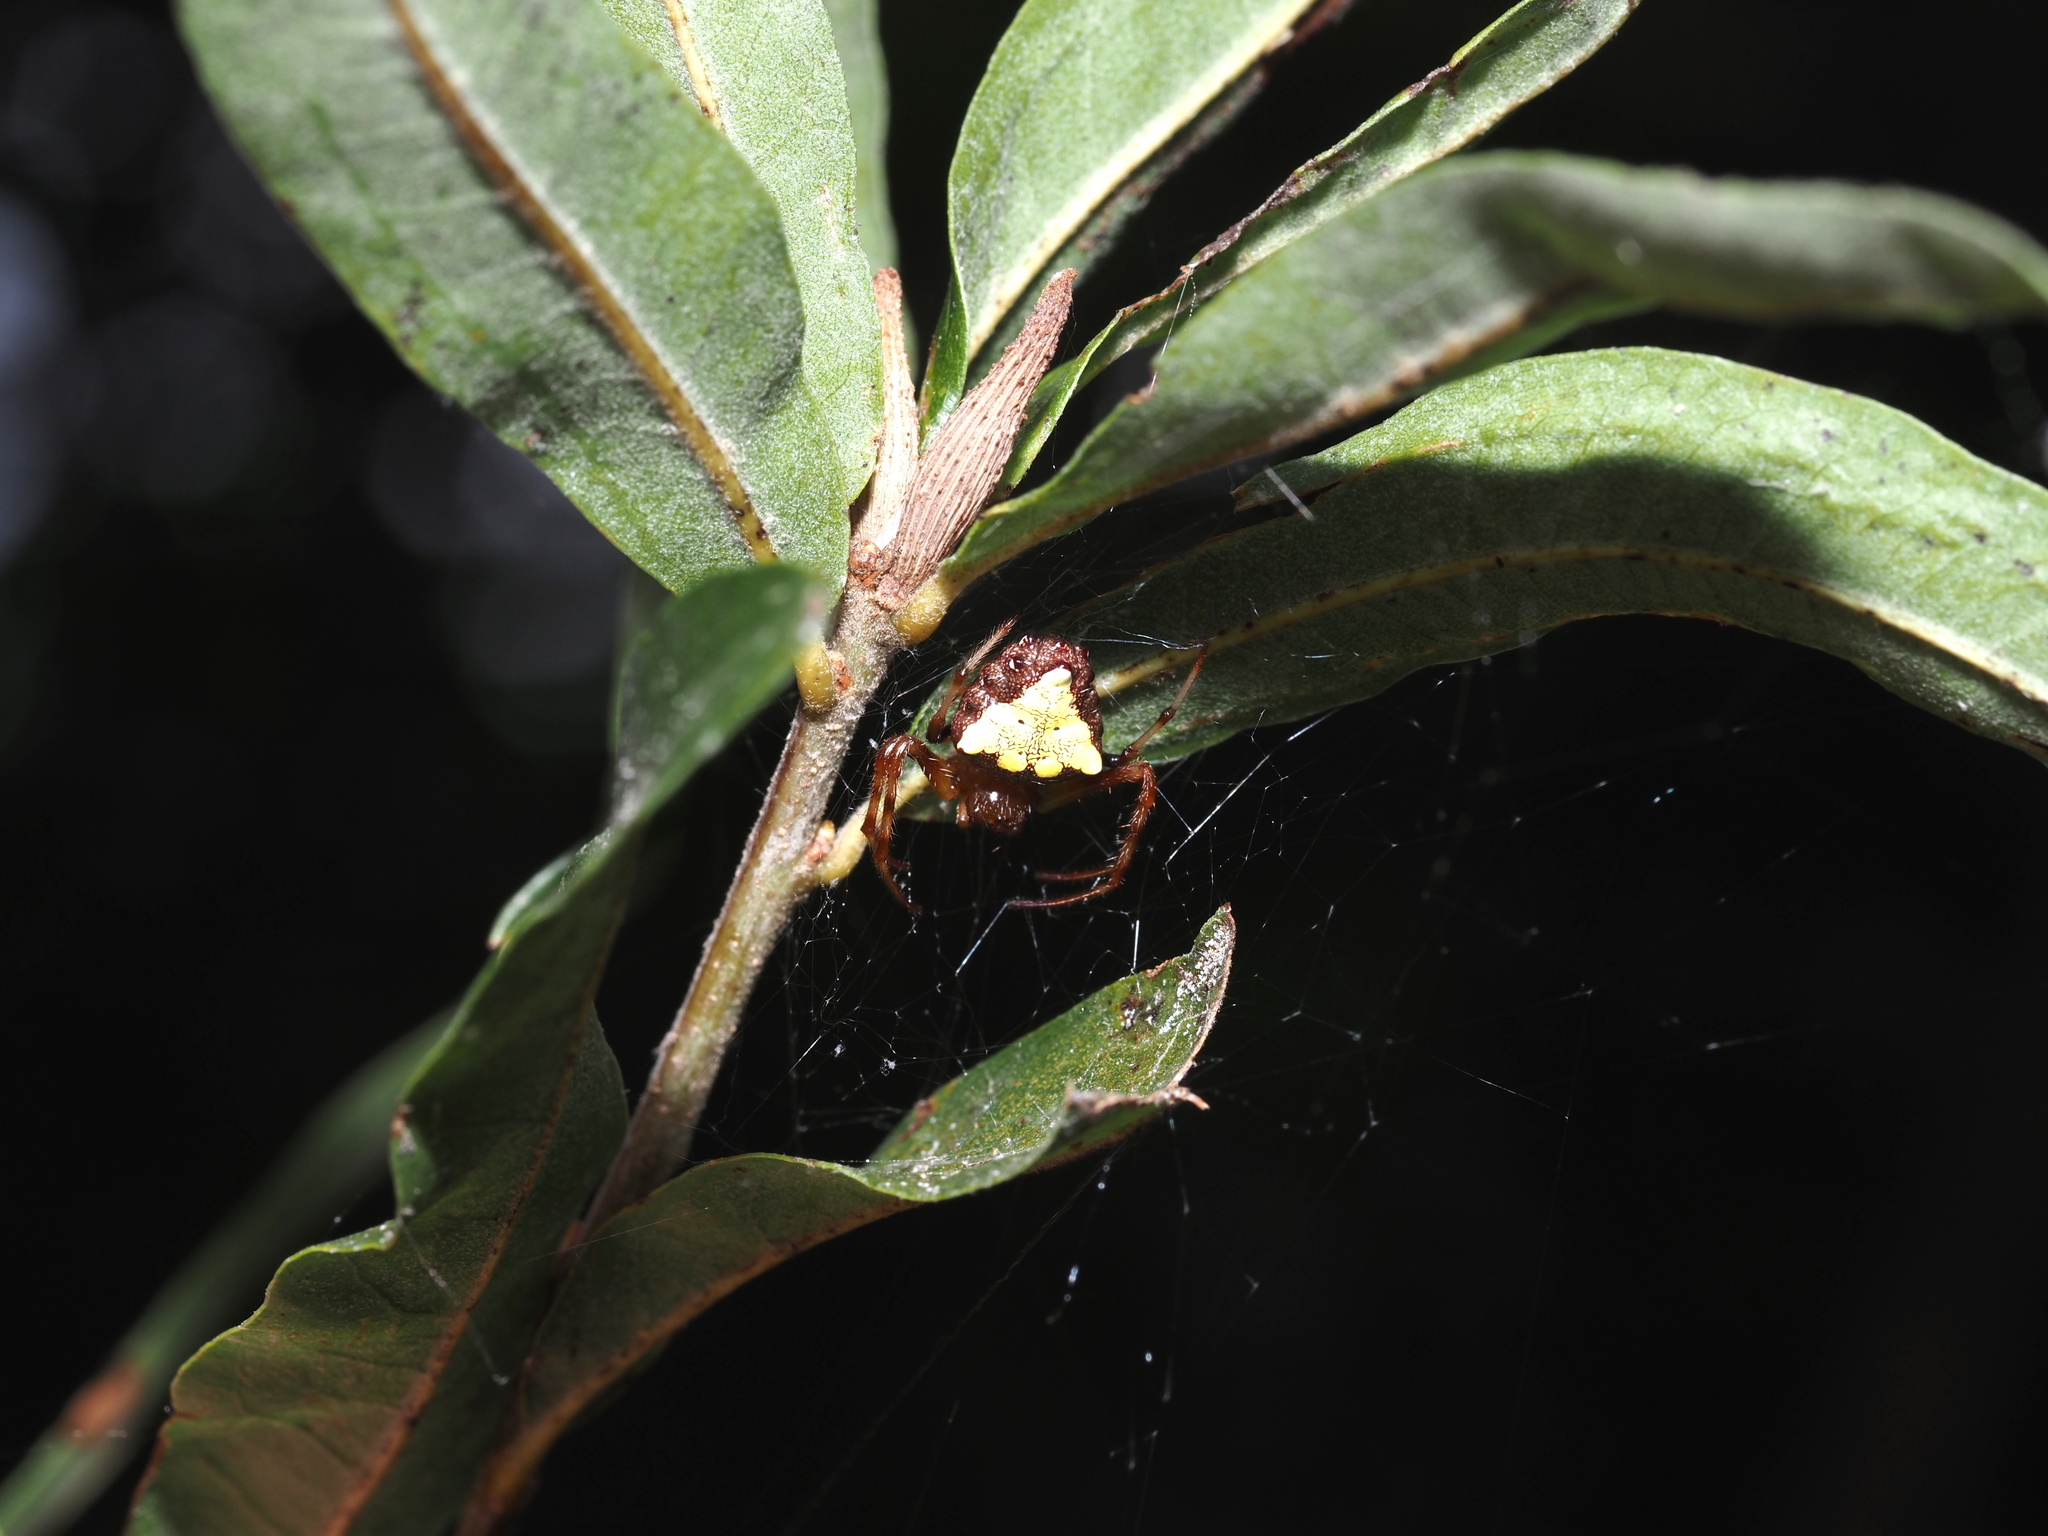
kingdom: Animalia
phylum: Arthropoda
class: Arachnida
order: Araneae
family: Araneidae
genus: Verrucosa
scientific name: Verrucosa arenata
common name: Orb weavers
